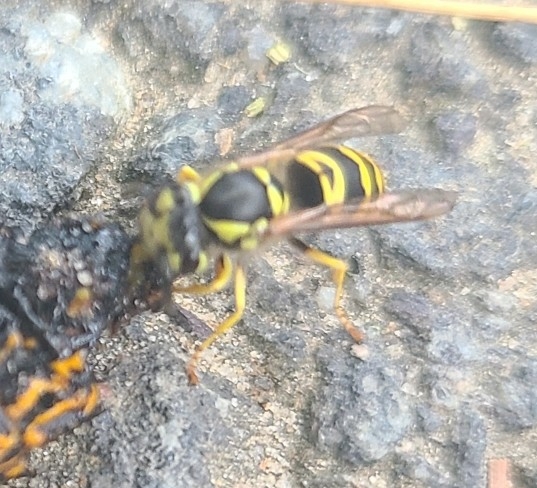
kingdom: Animalia
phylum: Arthropoda
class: Insecta
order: Hymenoptera
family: Vespidae
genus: Vespula
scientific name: Vespula maculifrons
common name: Eastern yellowjacket
